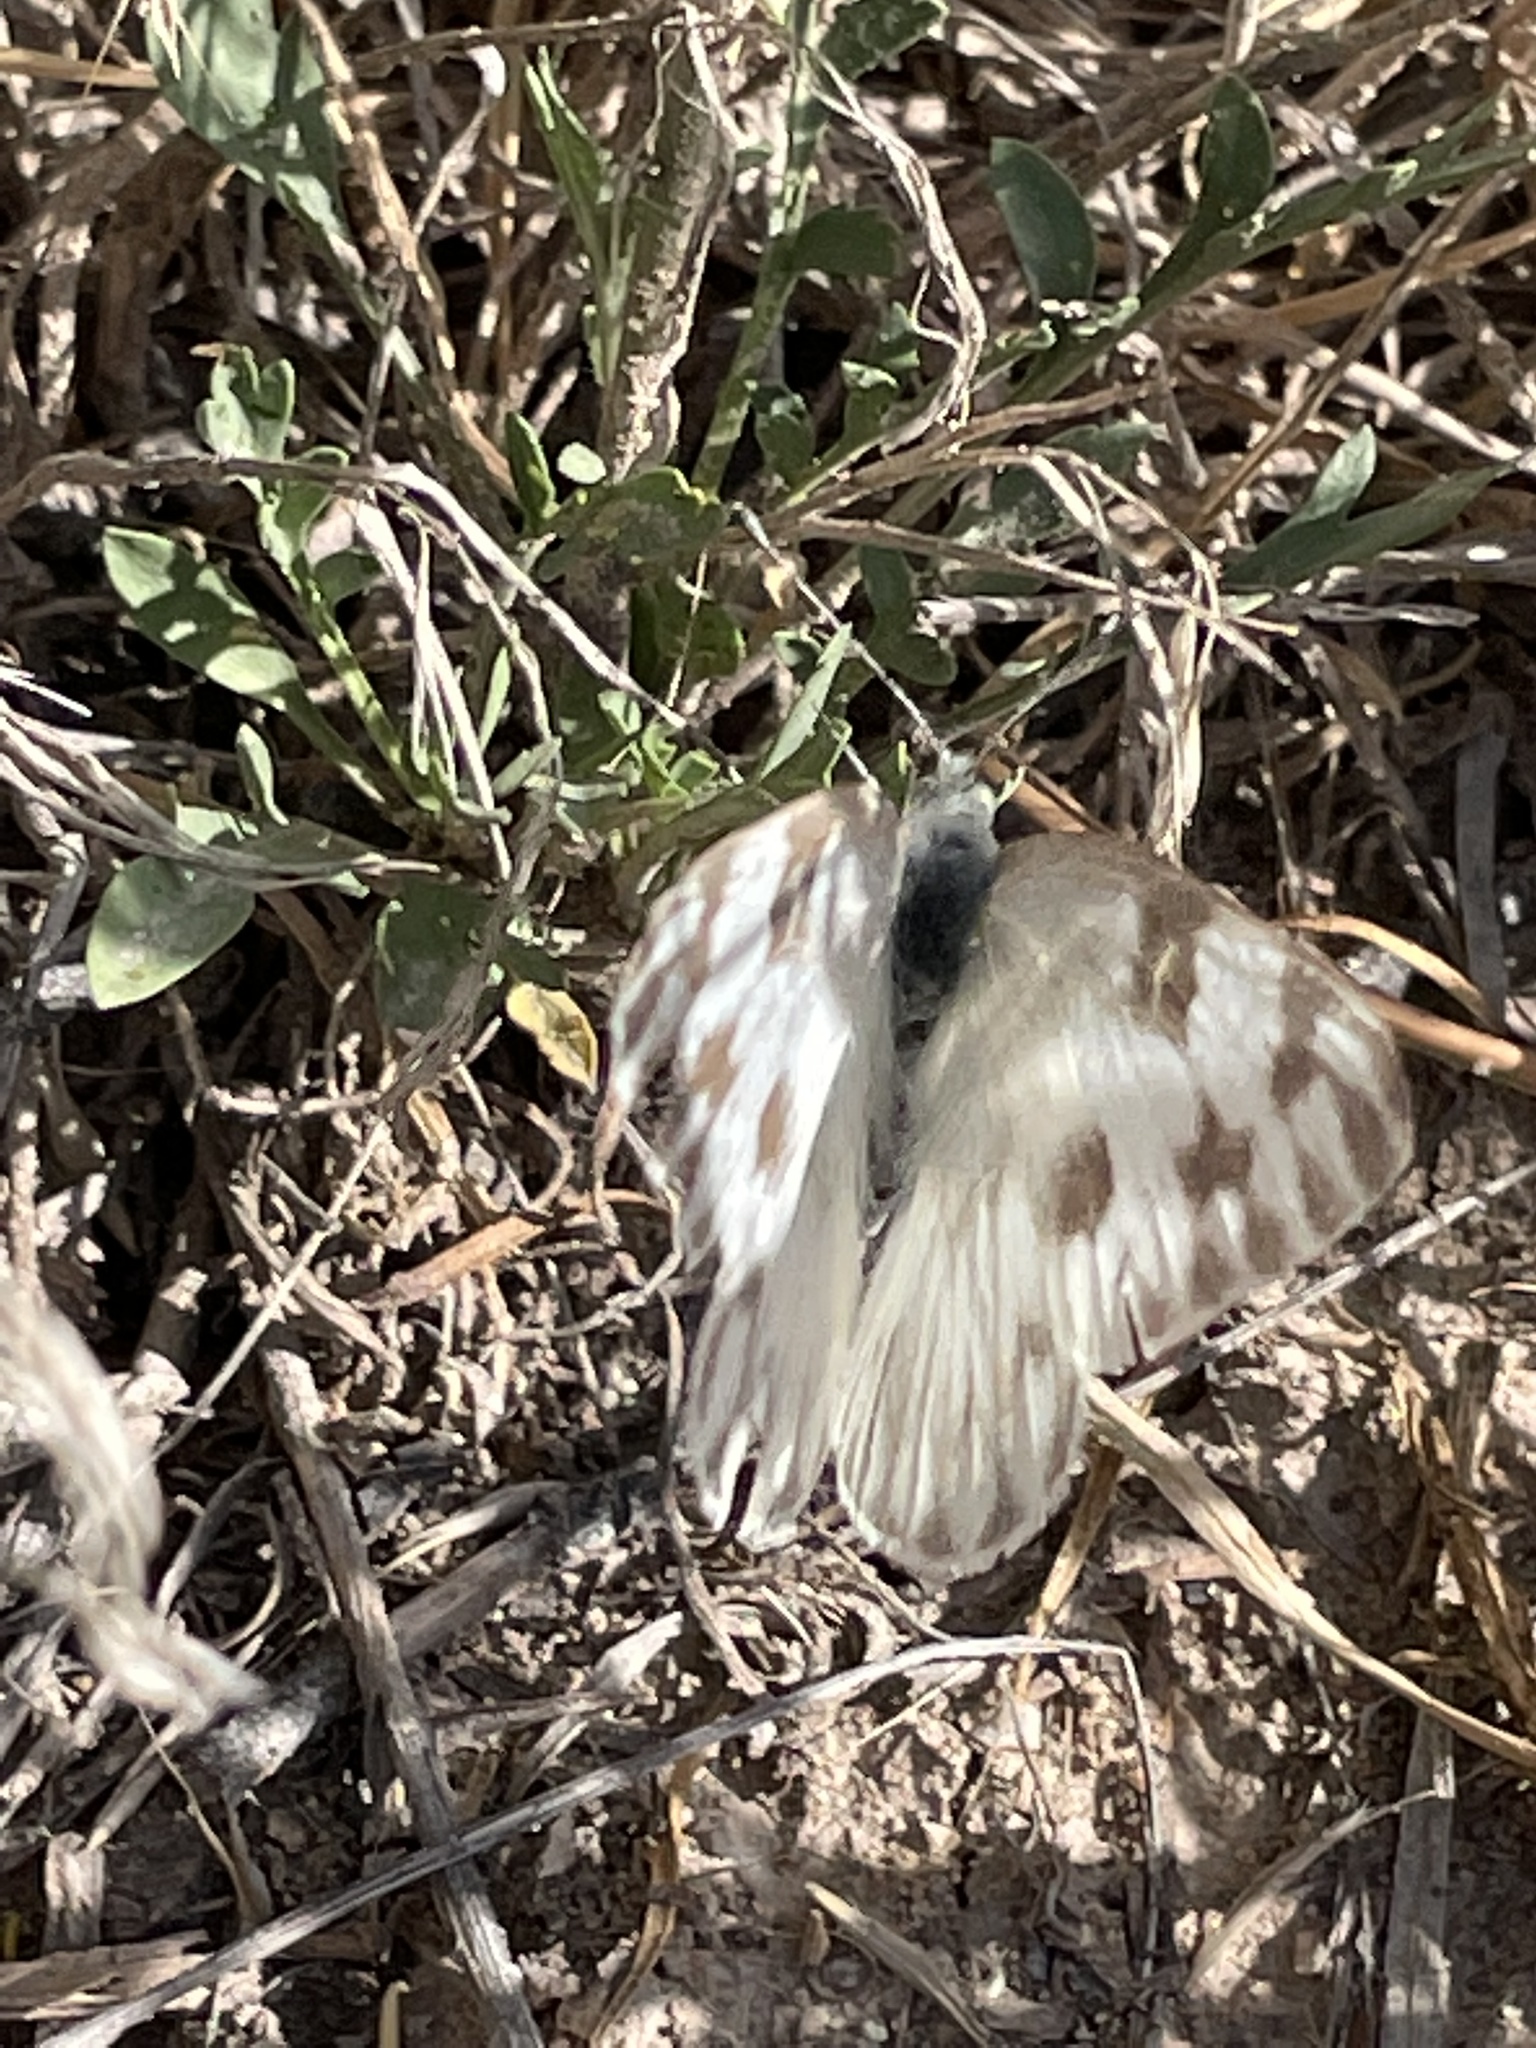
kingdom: Animalia
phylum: Arthropoda
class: Insecta
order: Lepidoptera
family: Pieridae
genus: Pontia
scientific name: Pontia protodice
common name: Checkered white
